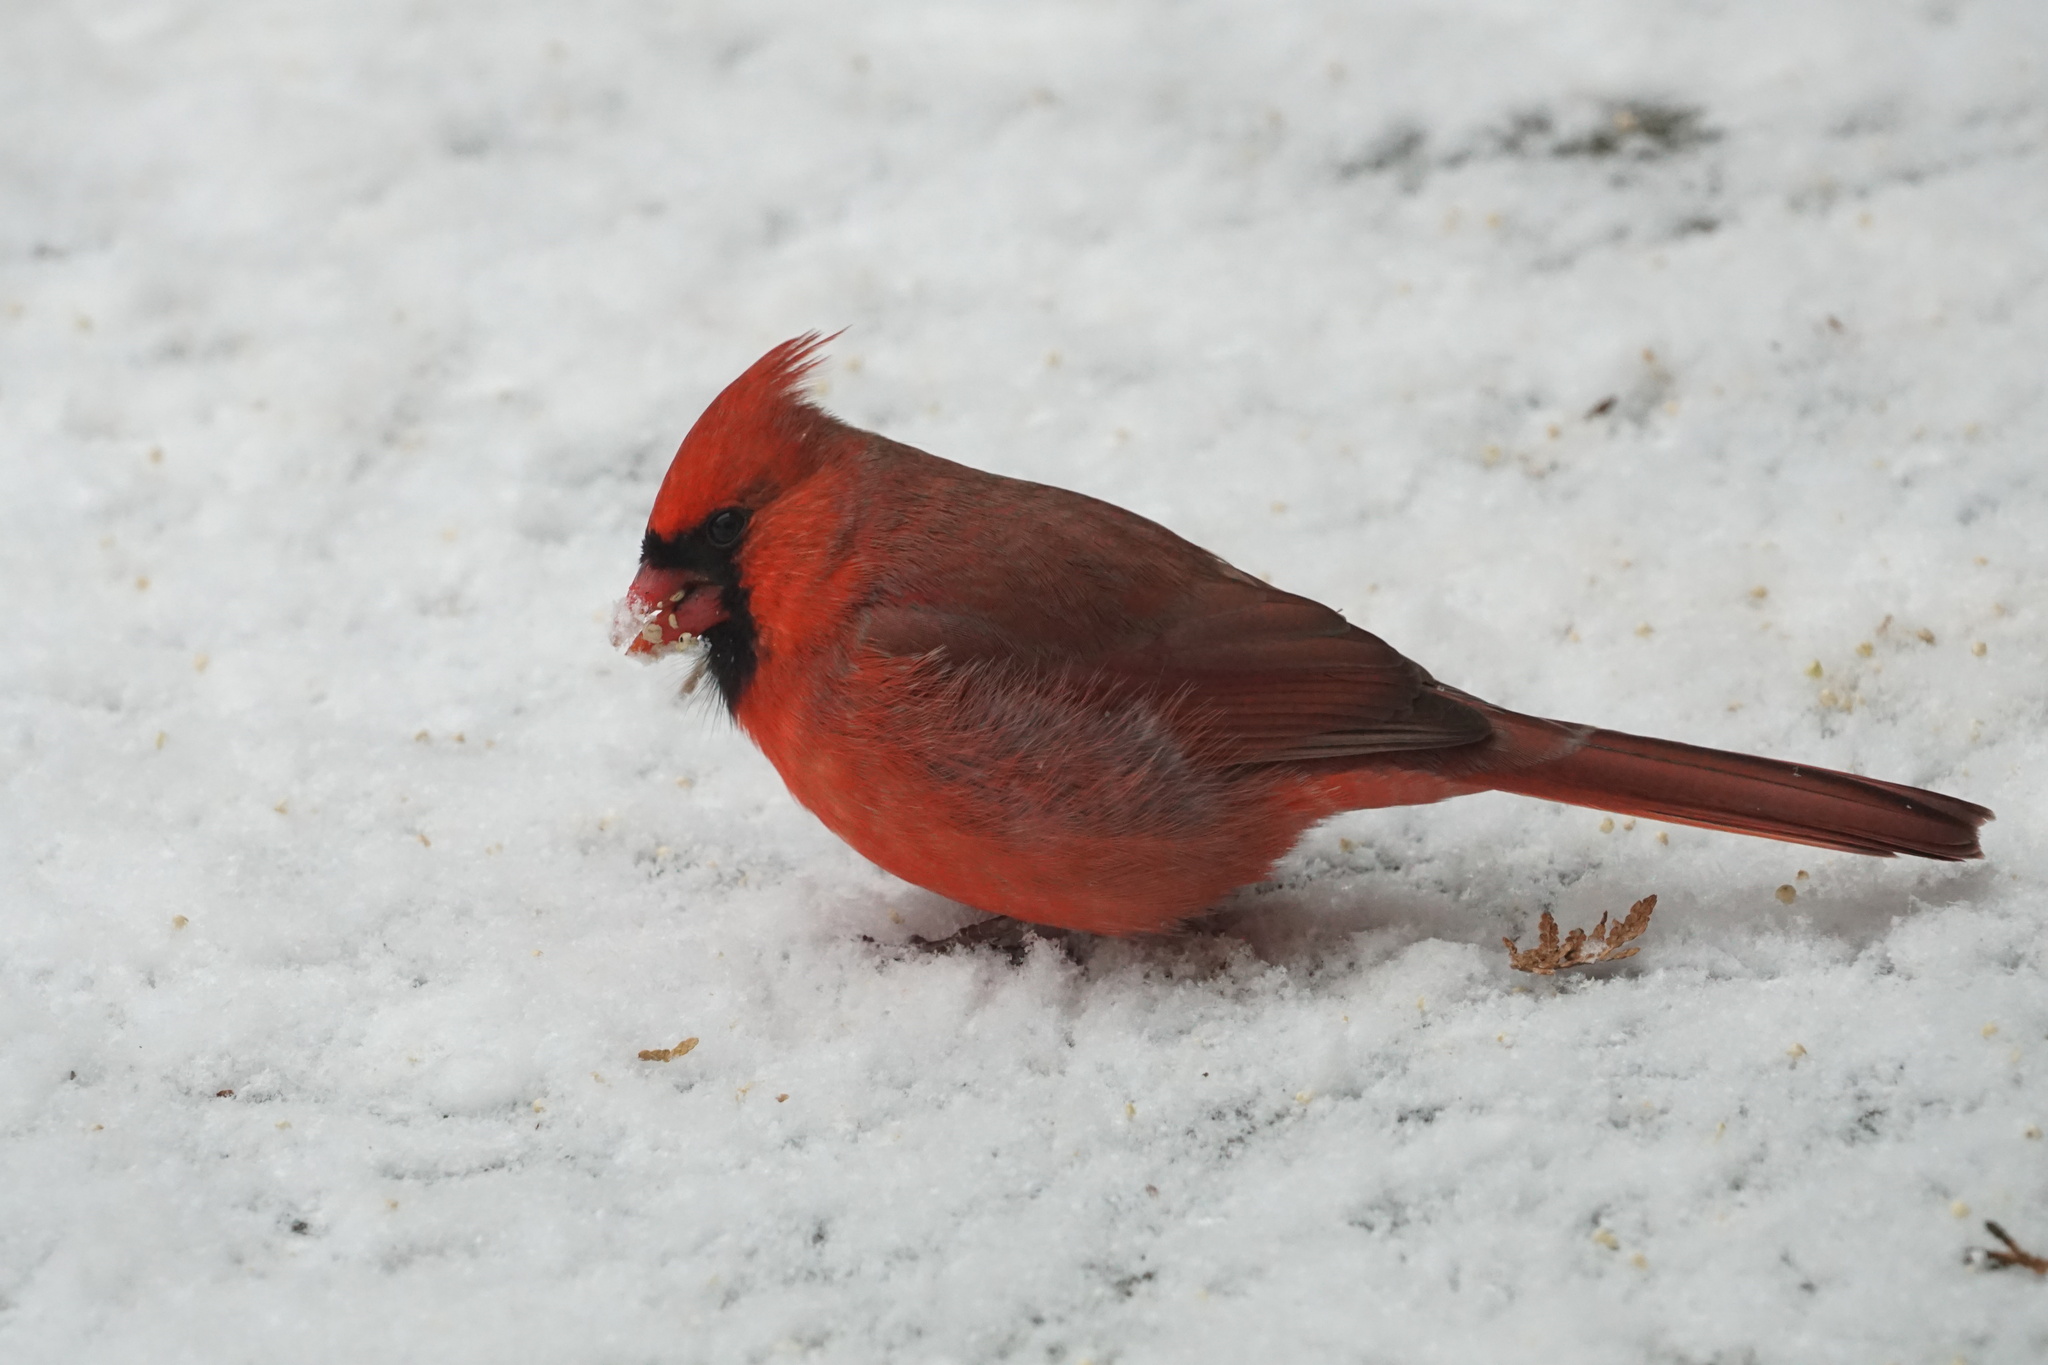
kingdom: Animalia
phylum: Chordata
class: Aves
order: Passeriformes
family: Cardinalidae
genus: Cardinalis
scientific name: Cardinalis cardinalis
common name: Northern cardinal
